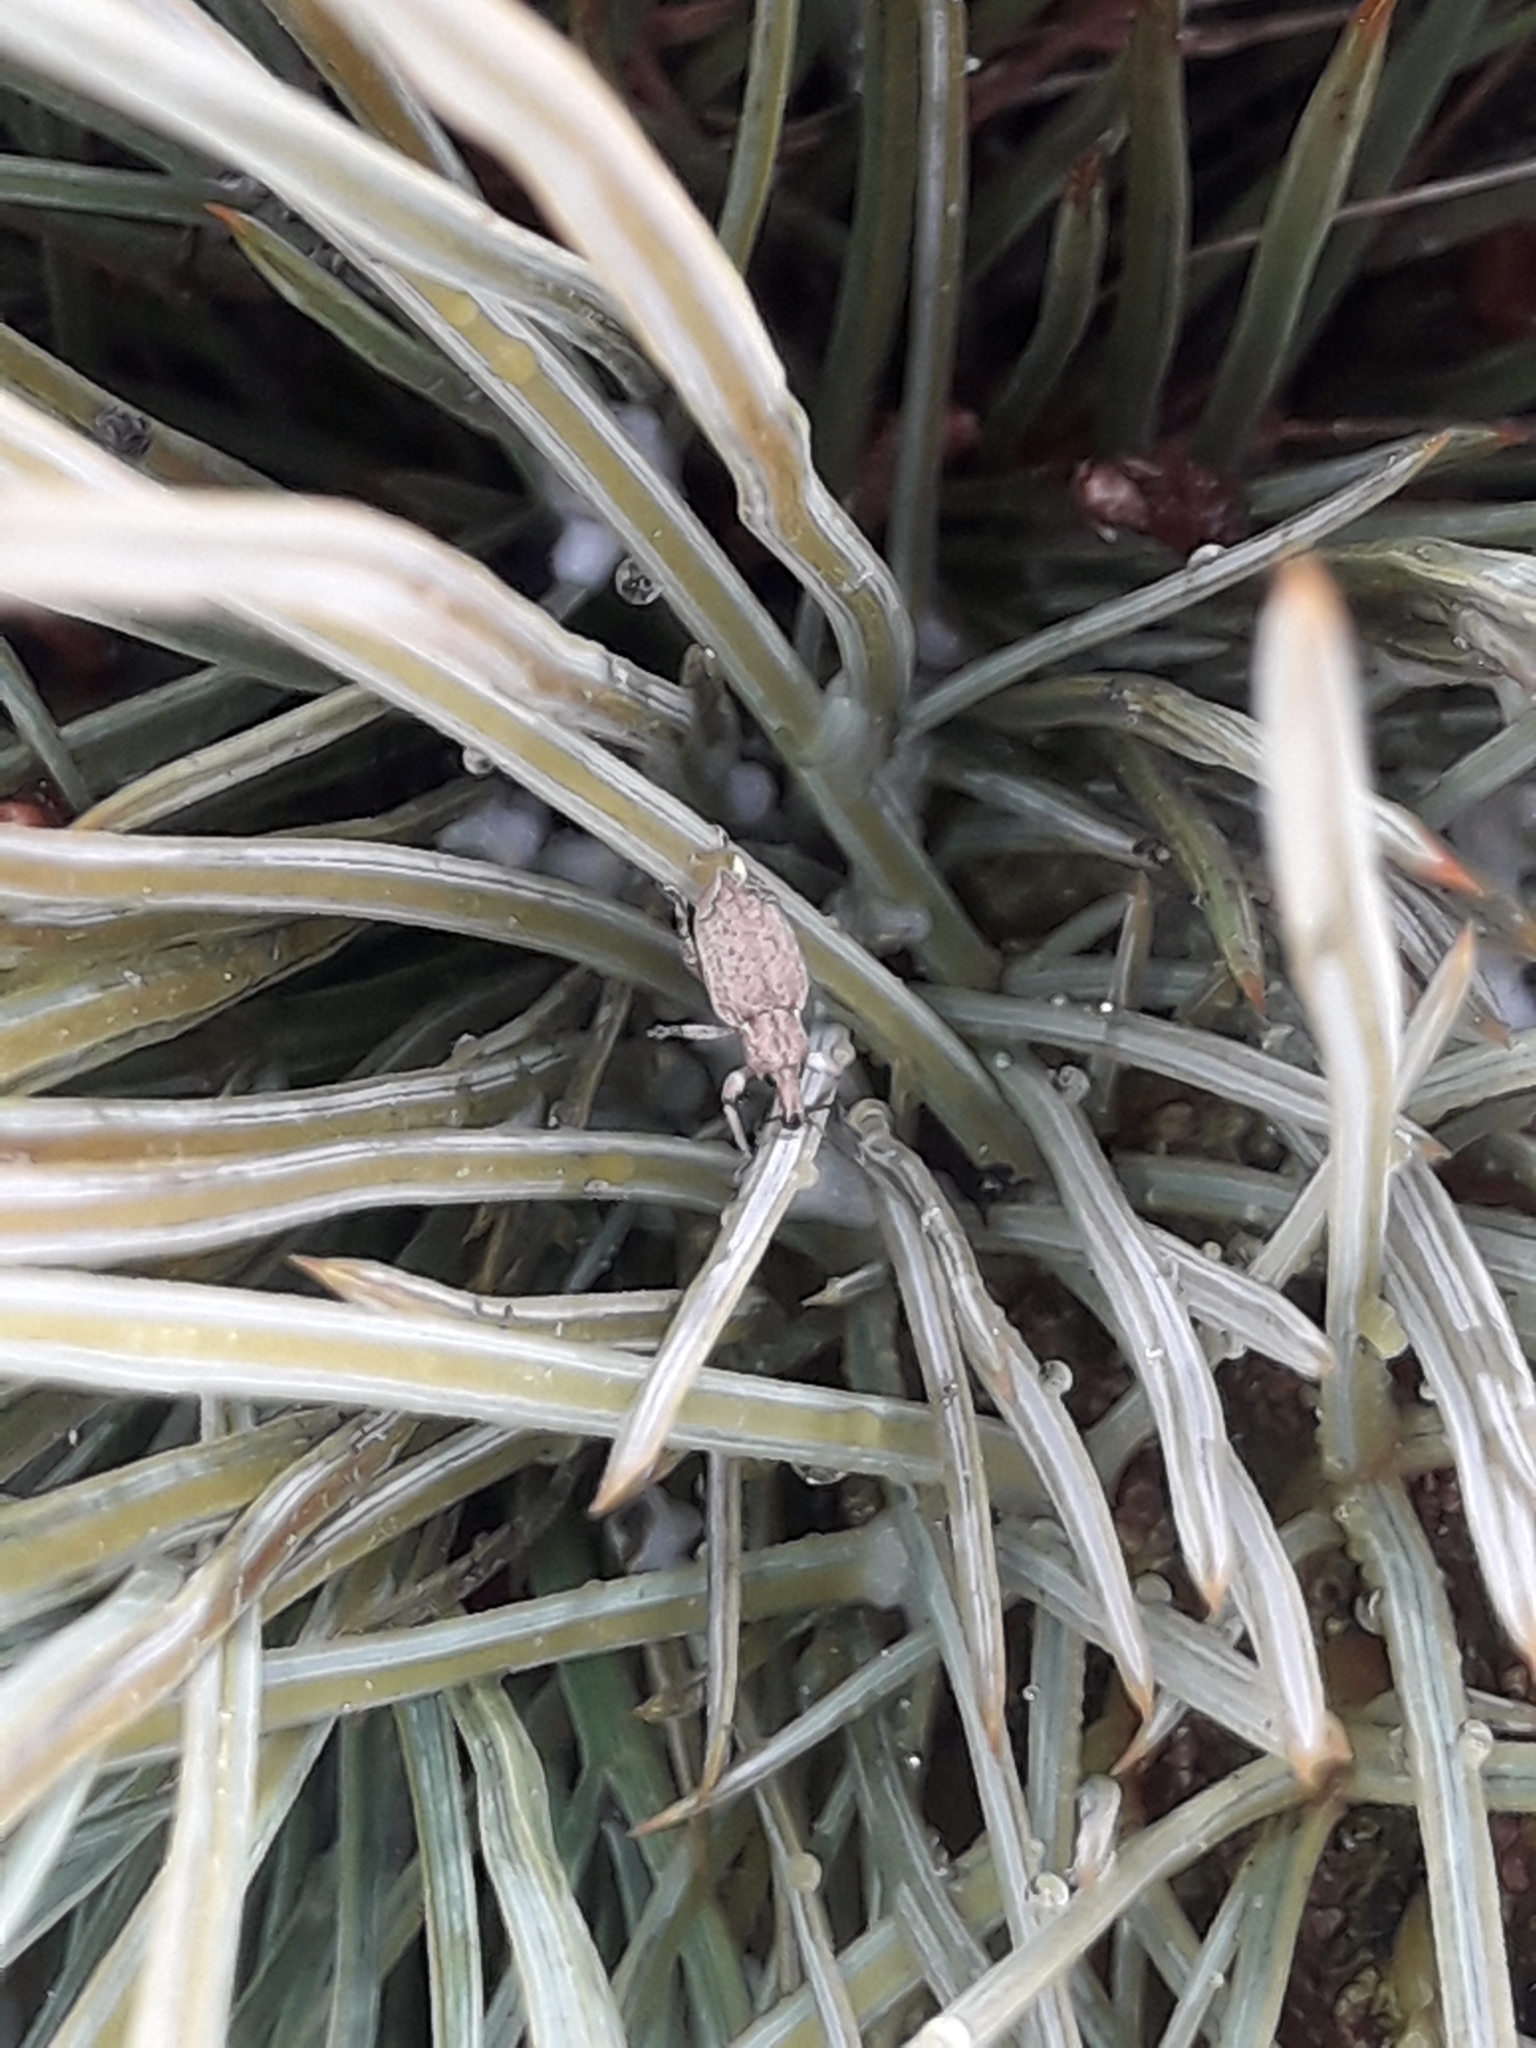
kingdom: Animalia
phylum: Arthropoda
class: Insecta
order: Coleoptera
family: Curculionidae
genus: Chalepistes
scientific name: Chalepistes pensus
